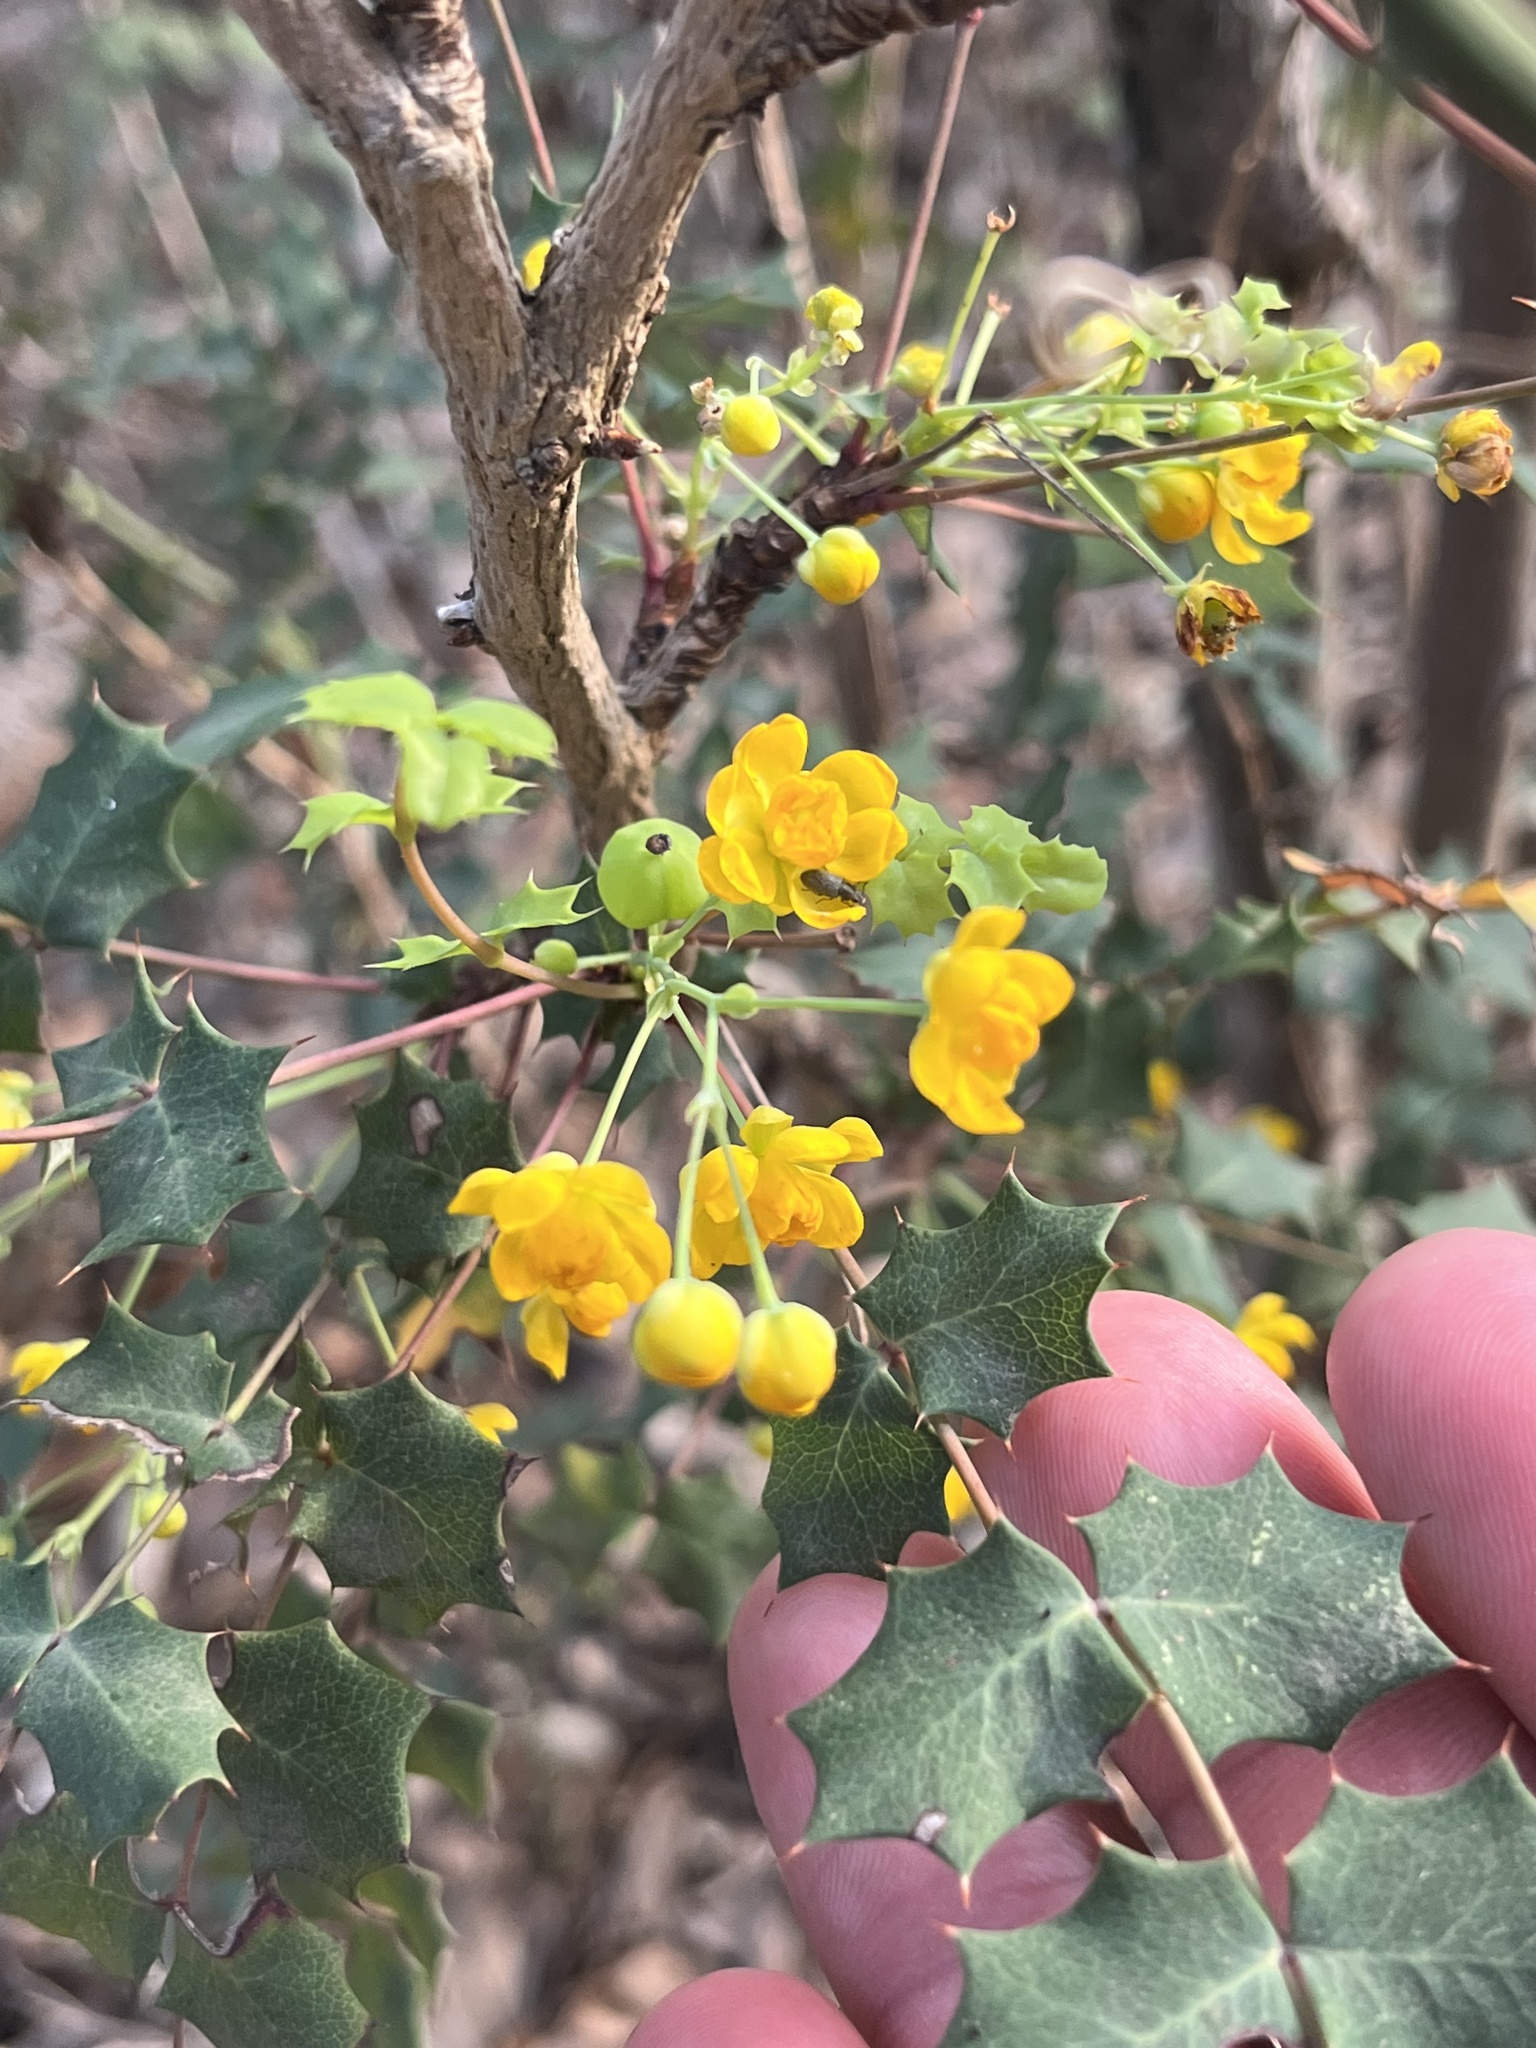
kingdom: Plantae
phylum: Tracheophyta
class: Magnoliopsida
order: Ranunculales
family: Berberidaceae
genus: Berberis
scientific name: Berberis swaseyi
